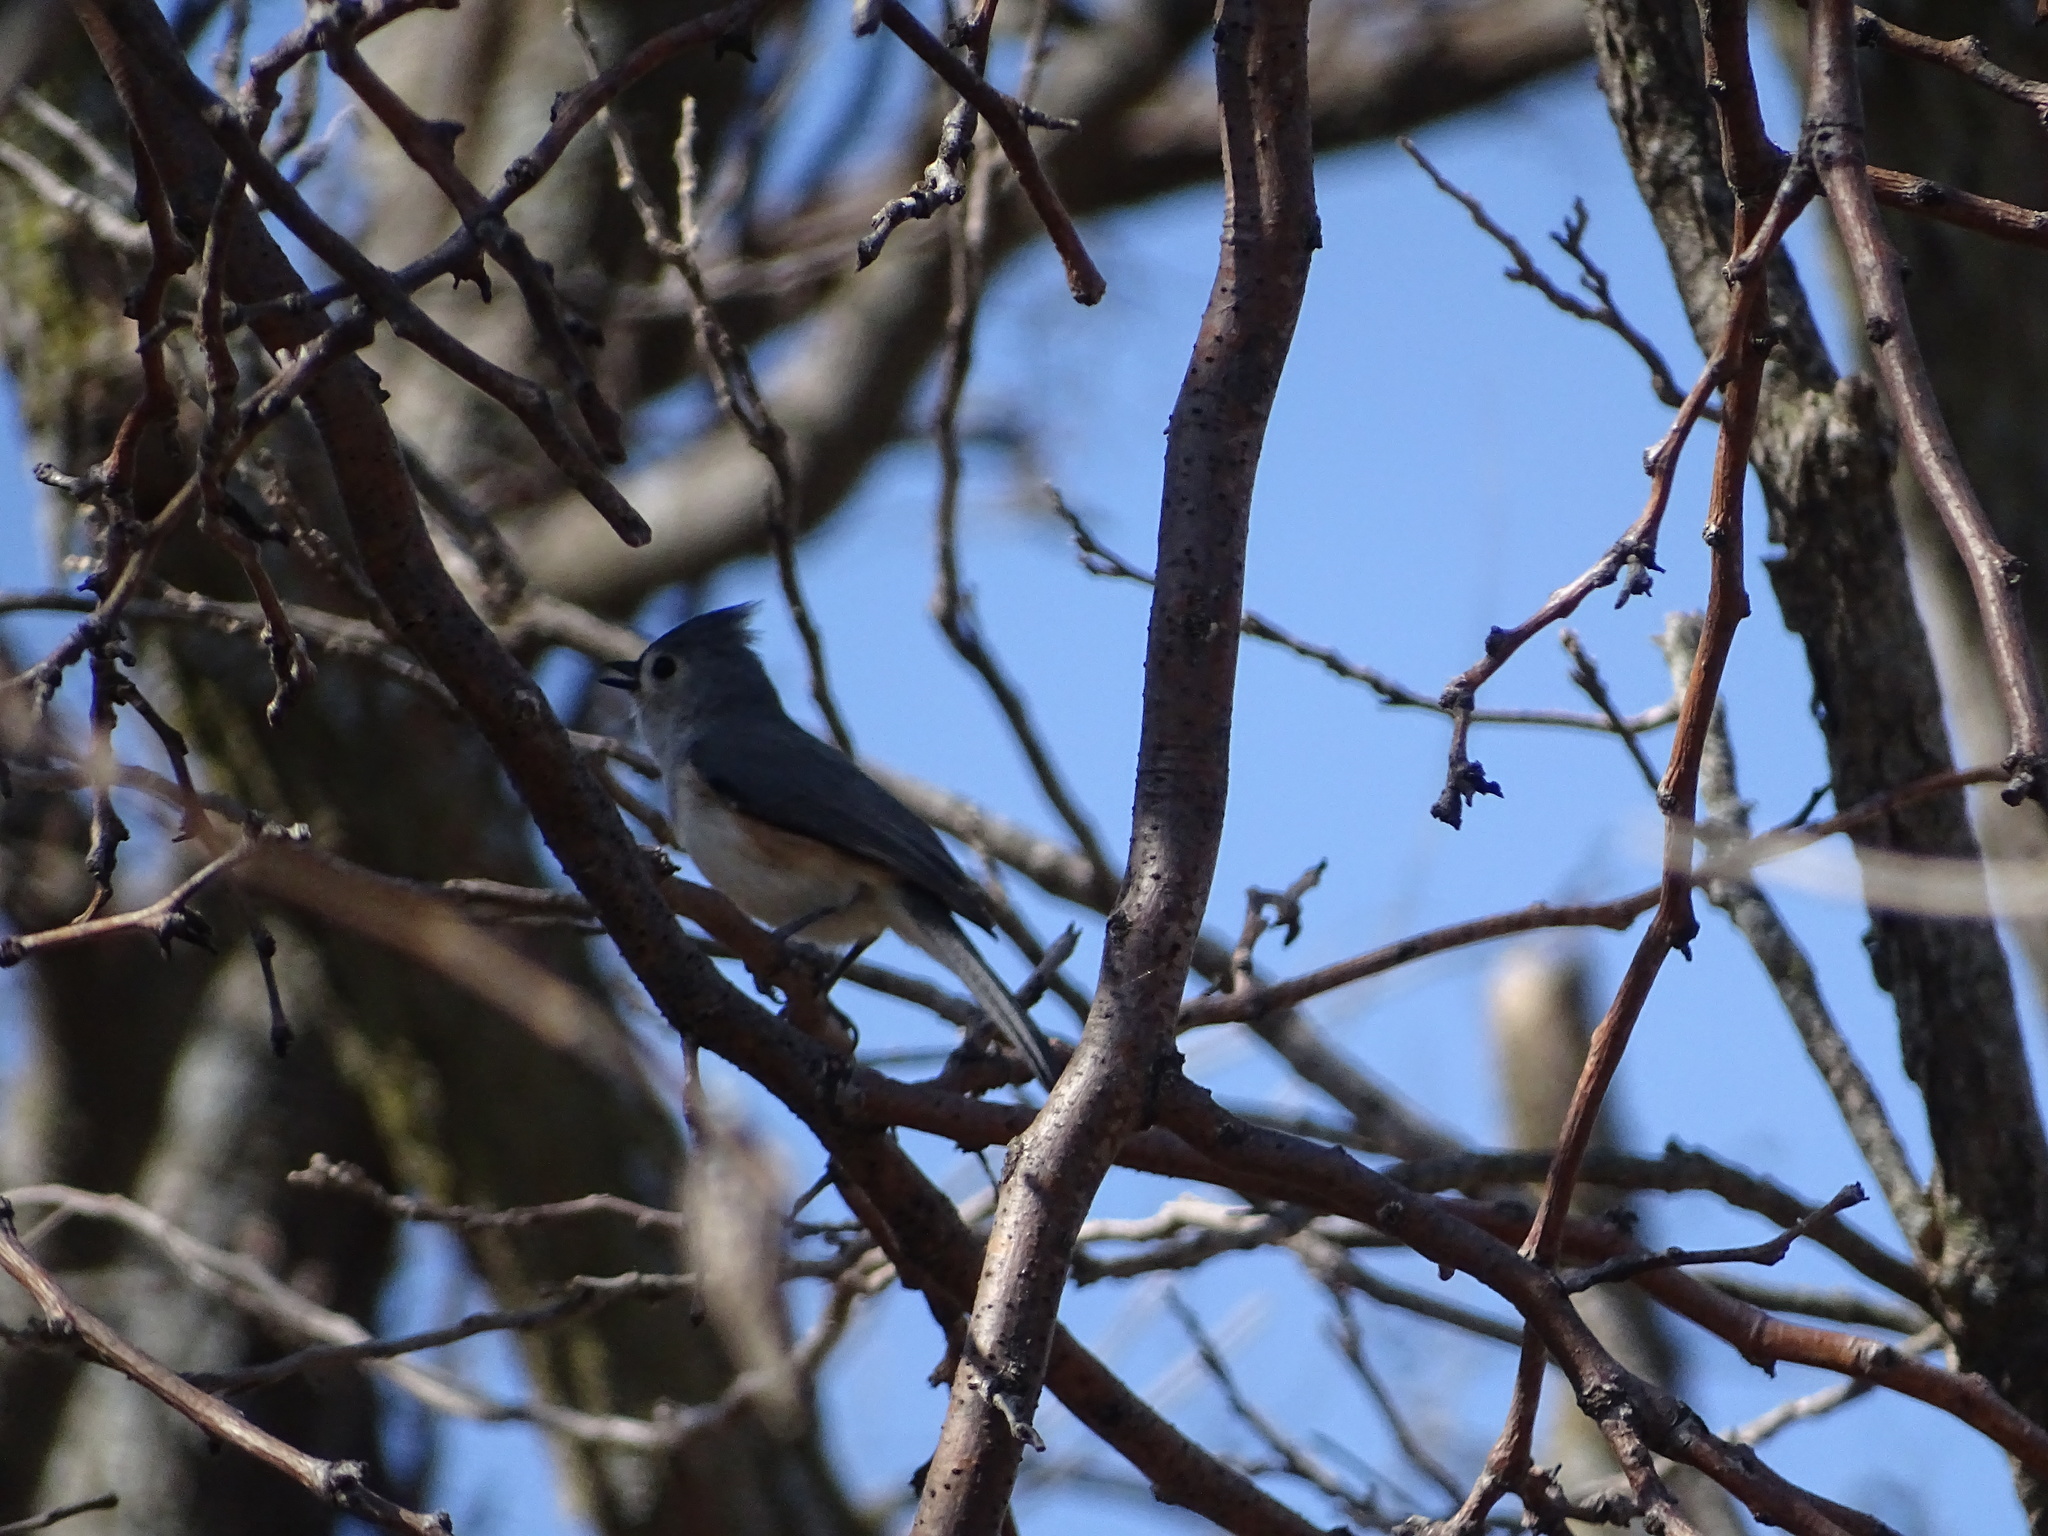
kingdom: Animalia
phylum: Chordata
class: Aves
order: Passeriformes
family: Paridae
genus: Baeolophus
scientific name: Baeolophus bicolor
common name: Tufted titmouse
